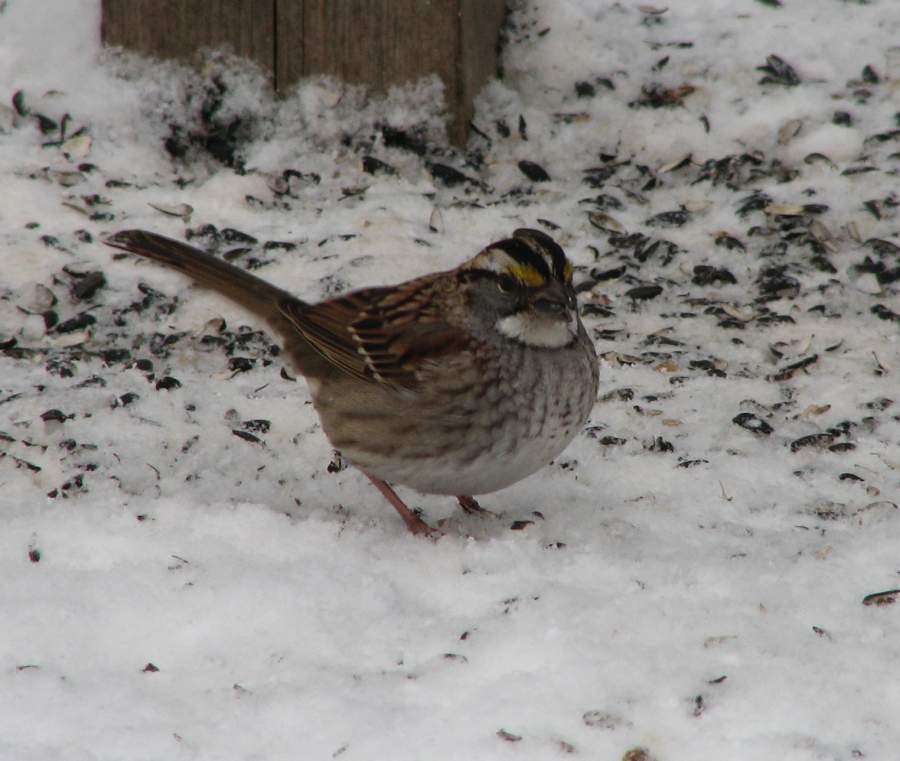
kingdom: Animalia
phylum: Chordata
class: Aves
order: Passeriformes
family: Passerellidae
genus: Zonotrichia
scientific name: Zonotrichia albicollis
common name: White-throated sparrow
